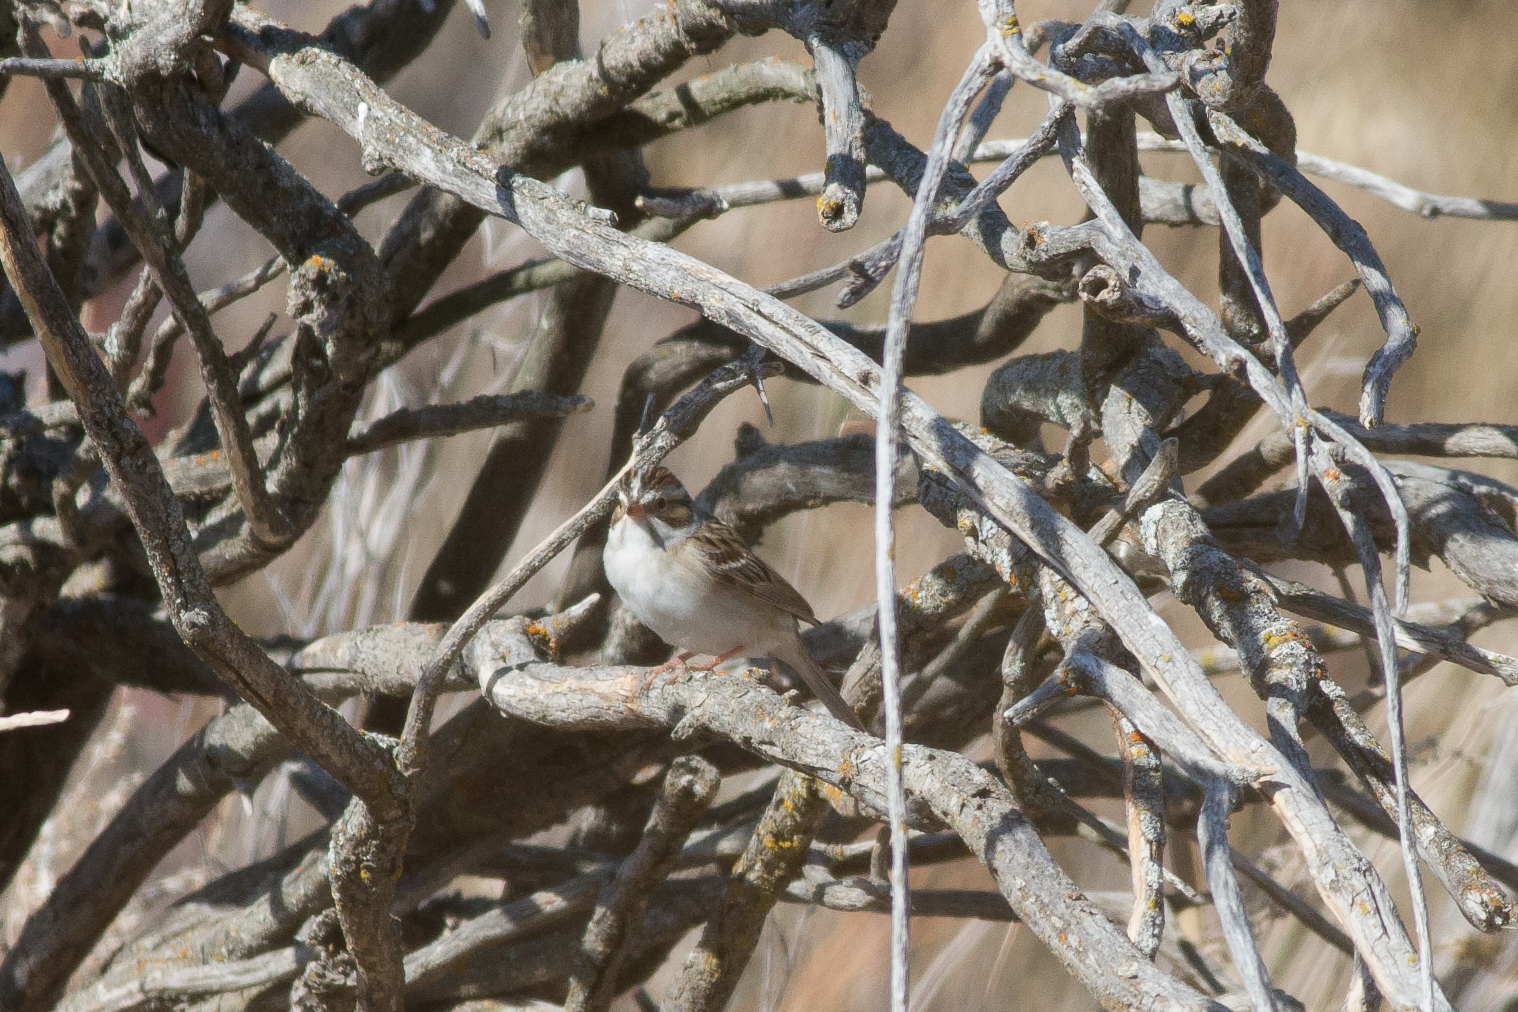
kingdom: Animalia
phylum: Chordata
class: Aves
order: Passeriformes
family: Passerellidae
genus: Spizella
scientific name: Spizella pallida
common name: Clay-colored sparrow
